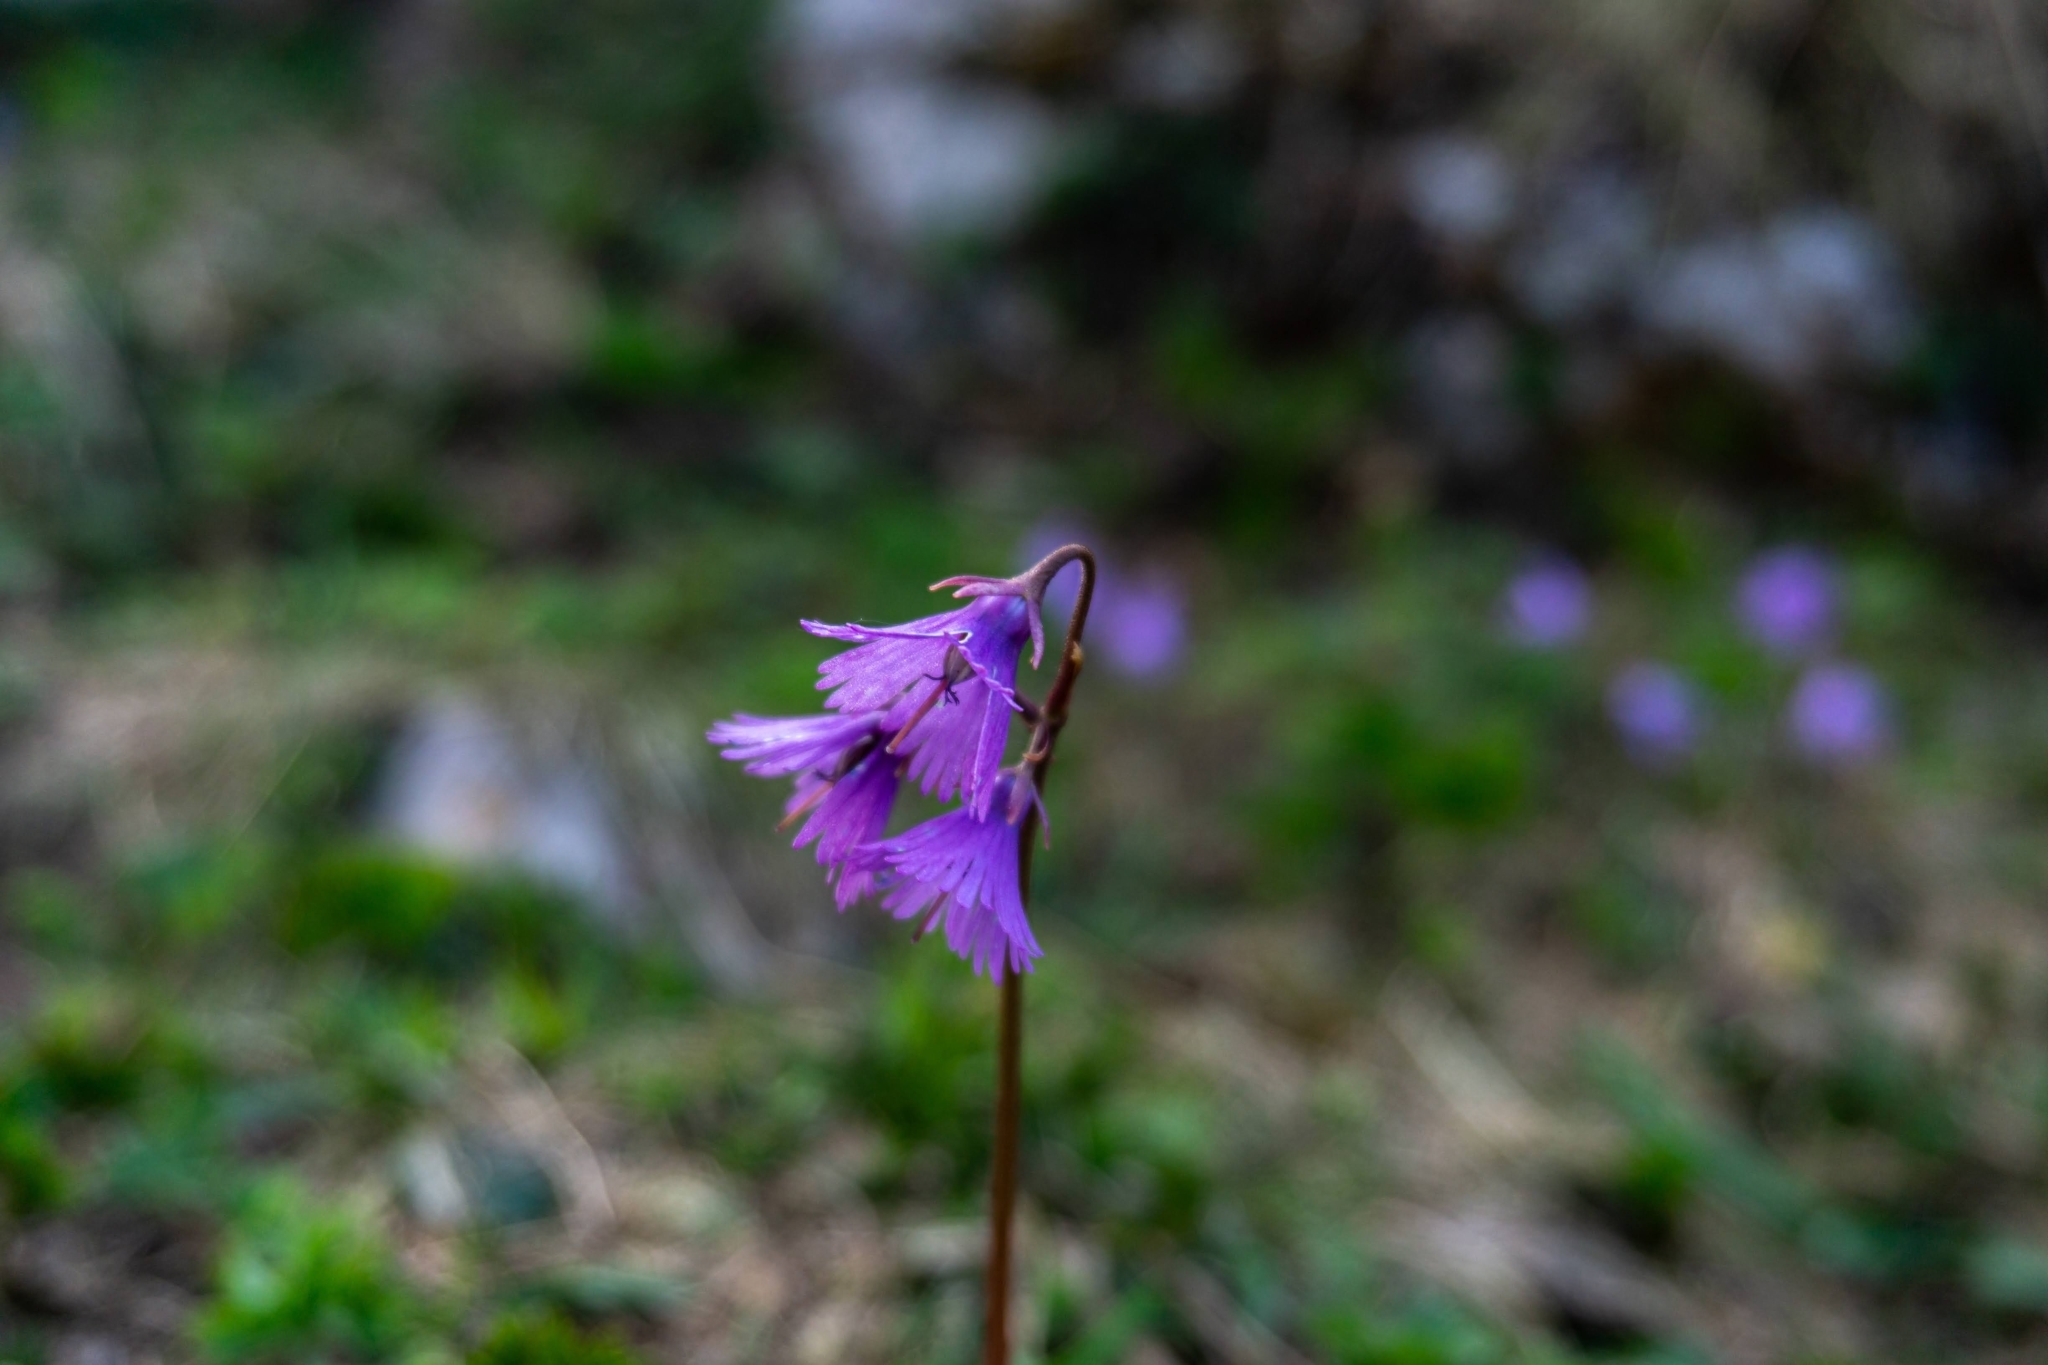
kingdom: Plantae
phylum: Tracheophyta
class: Magnoliopsida
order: Ericales
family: Primulaceae
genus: Soldanella
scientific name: Soldanella alpina
